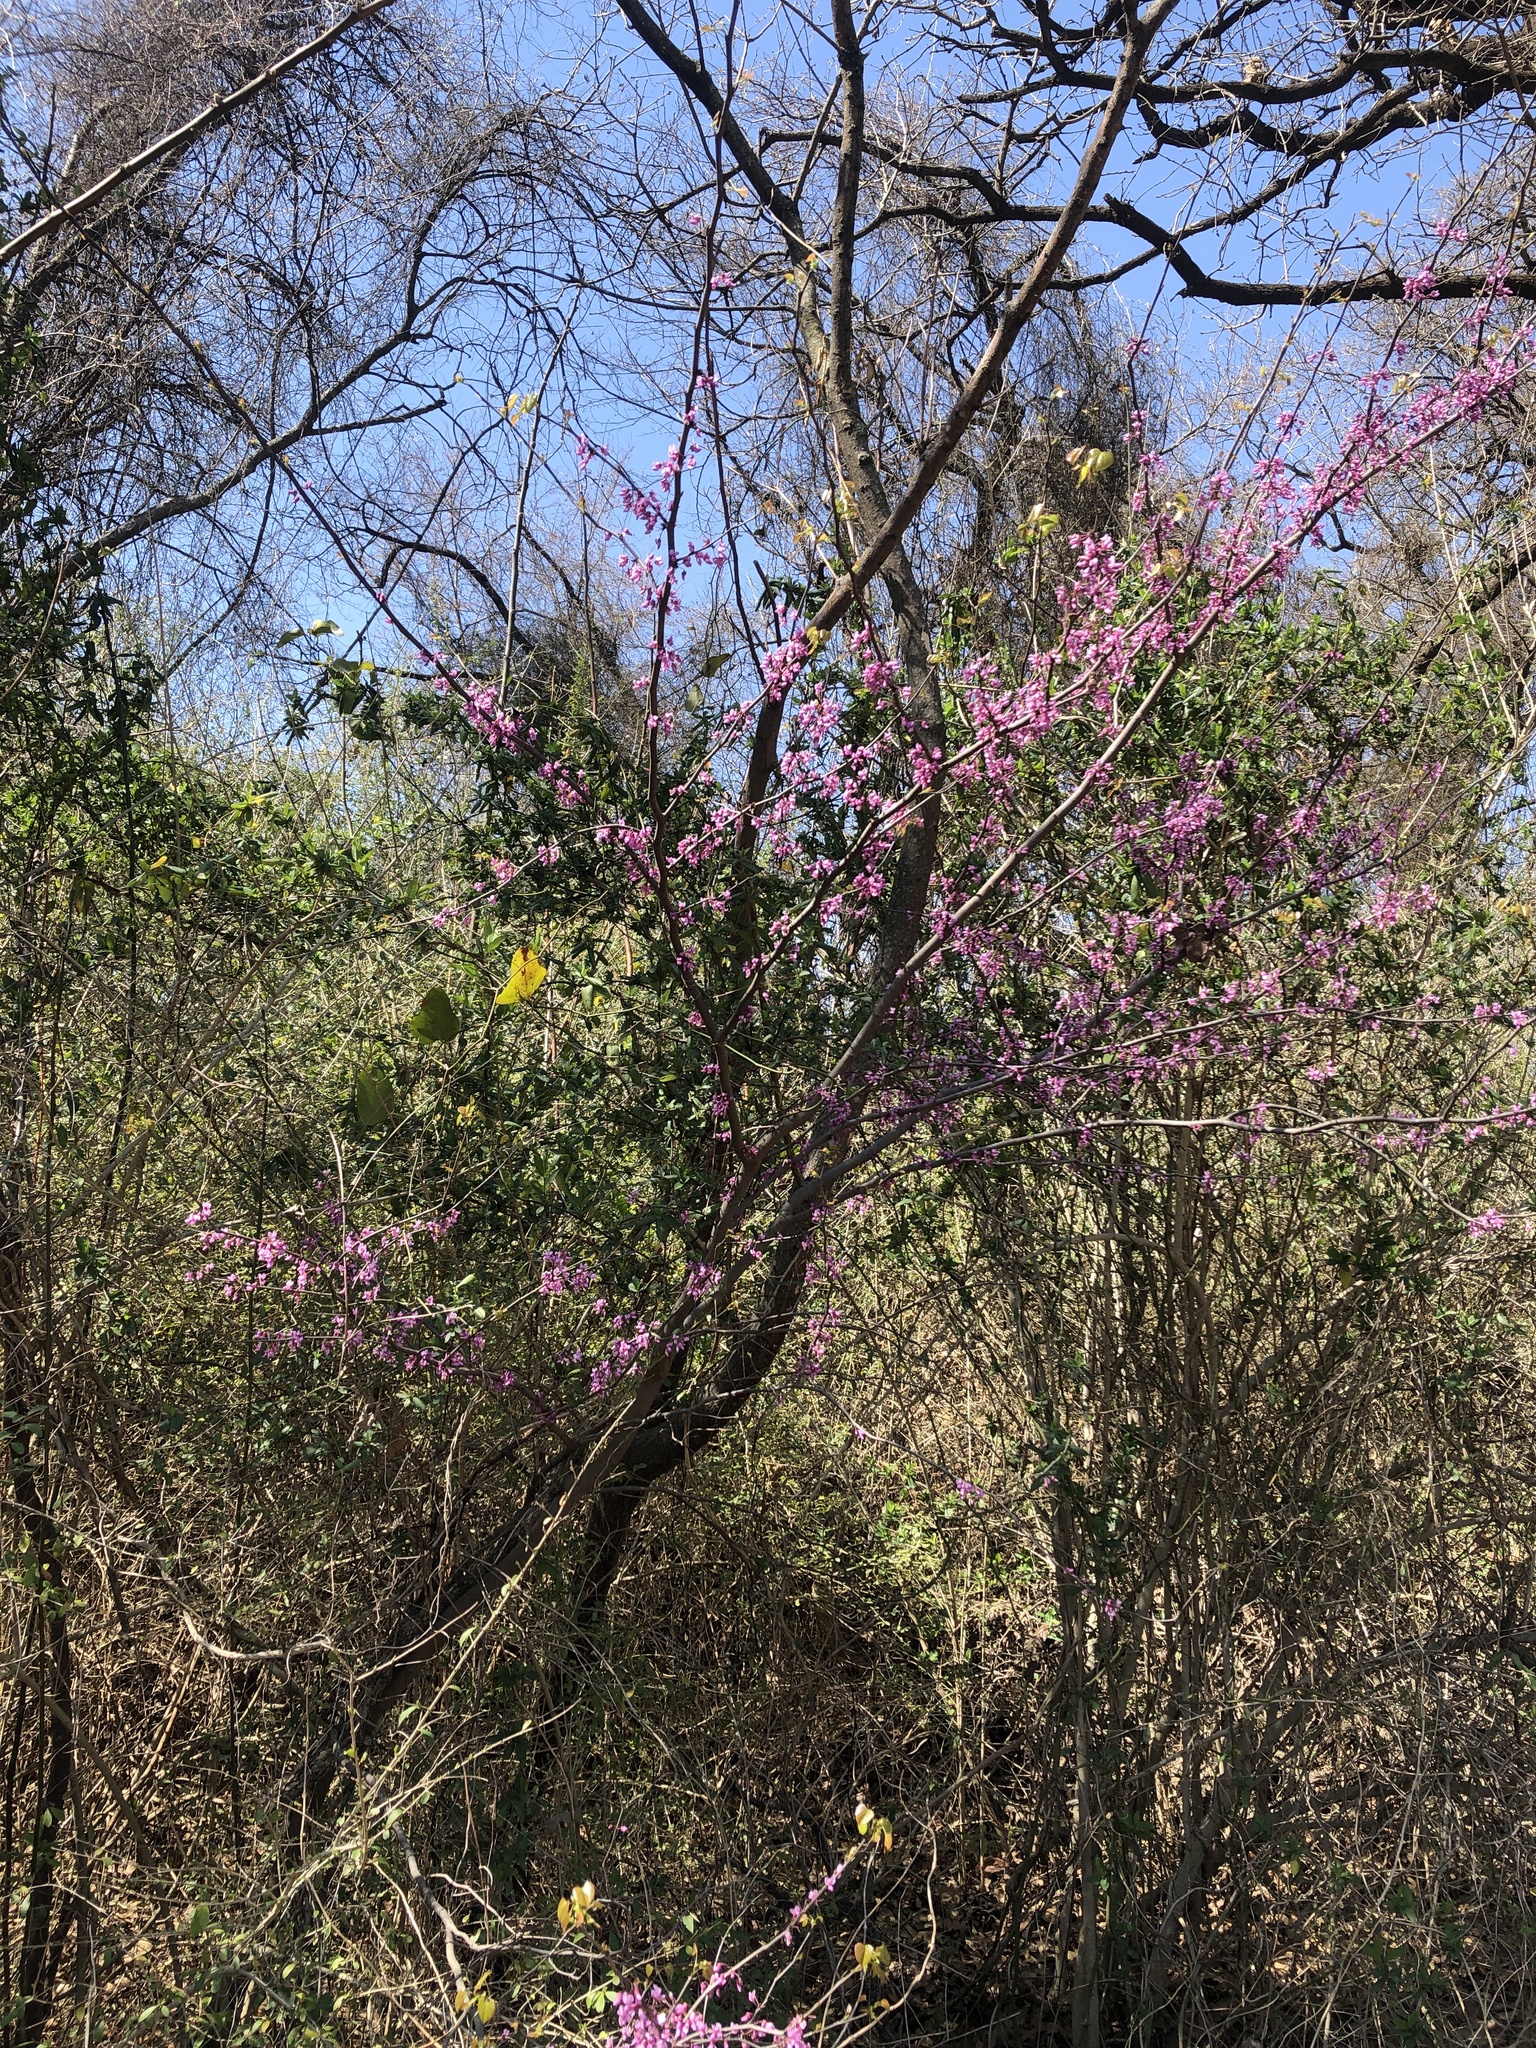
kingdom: Plantae
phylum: Tracheophyta
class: Magnoliopsida
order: Fabales
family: Fabaceae
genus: Cercis
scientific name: Cercis canadensis
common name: Eastern redbud
